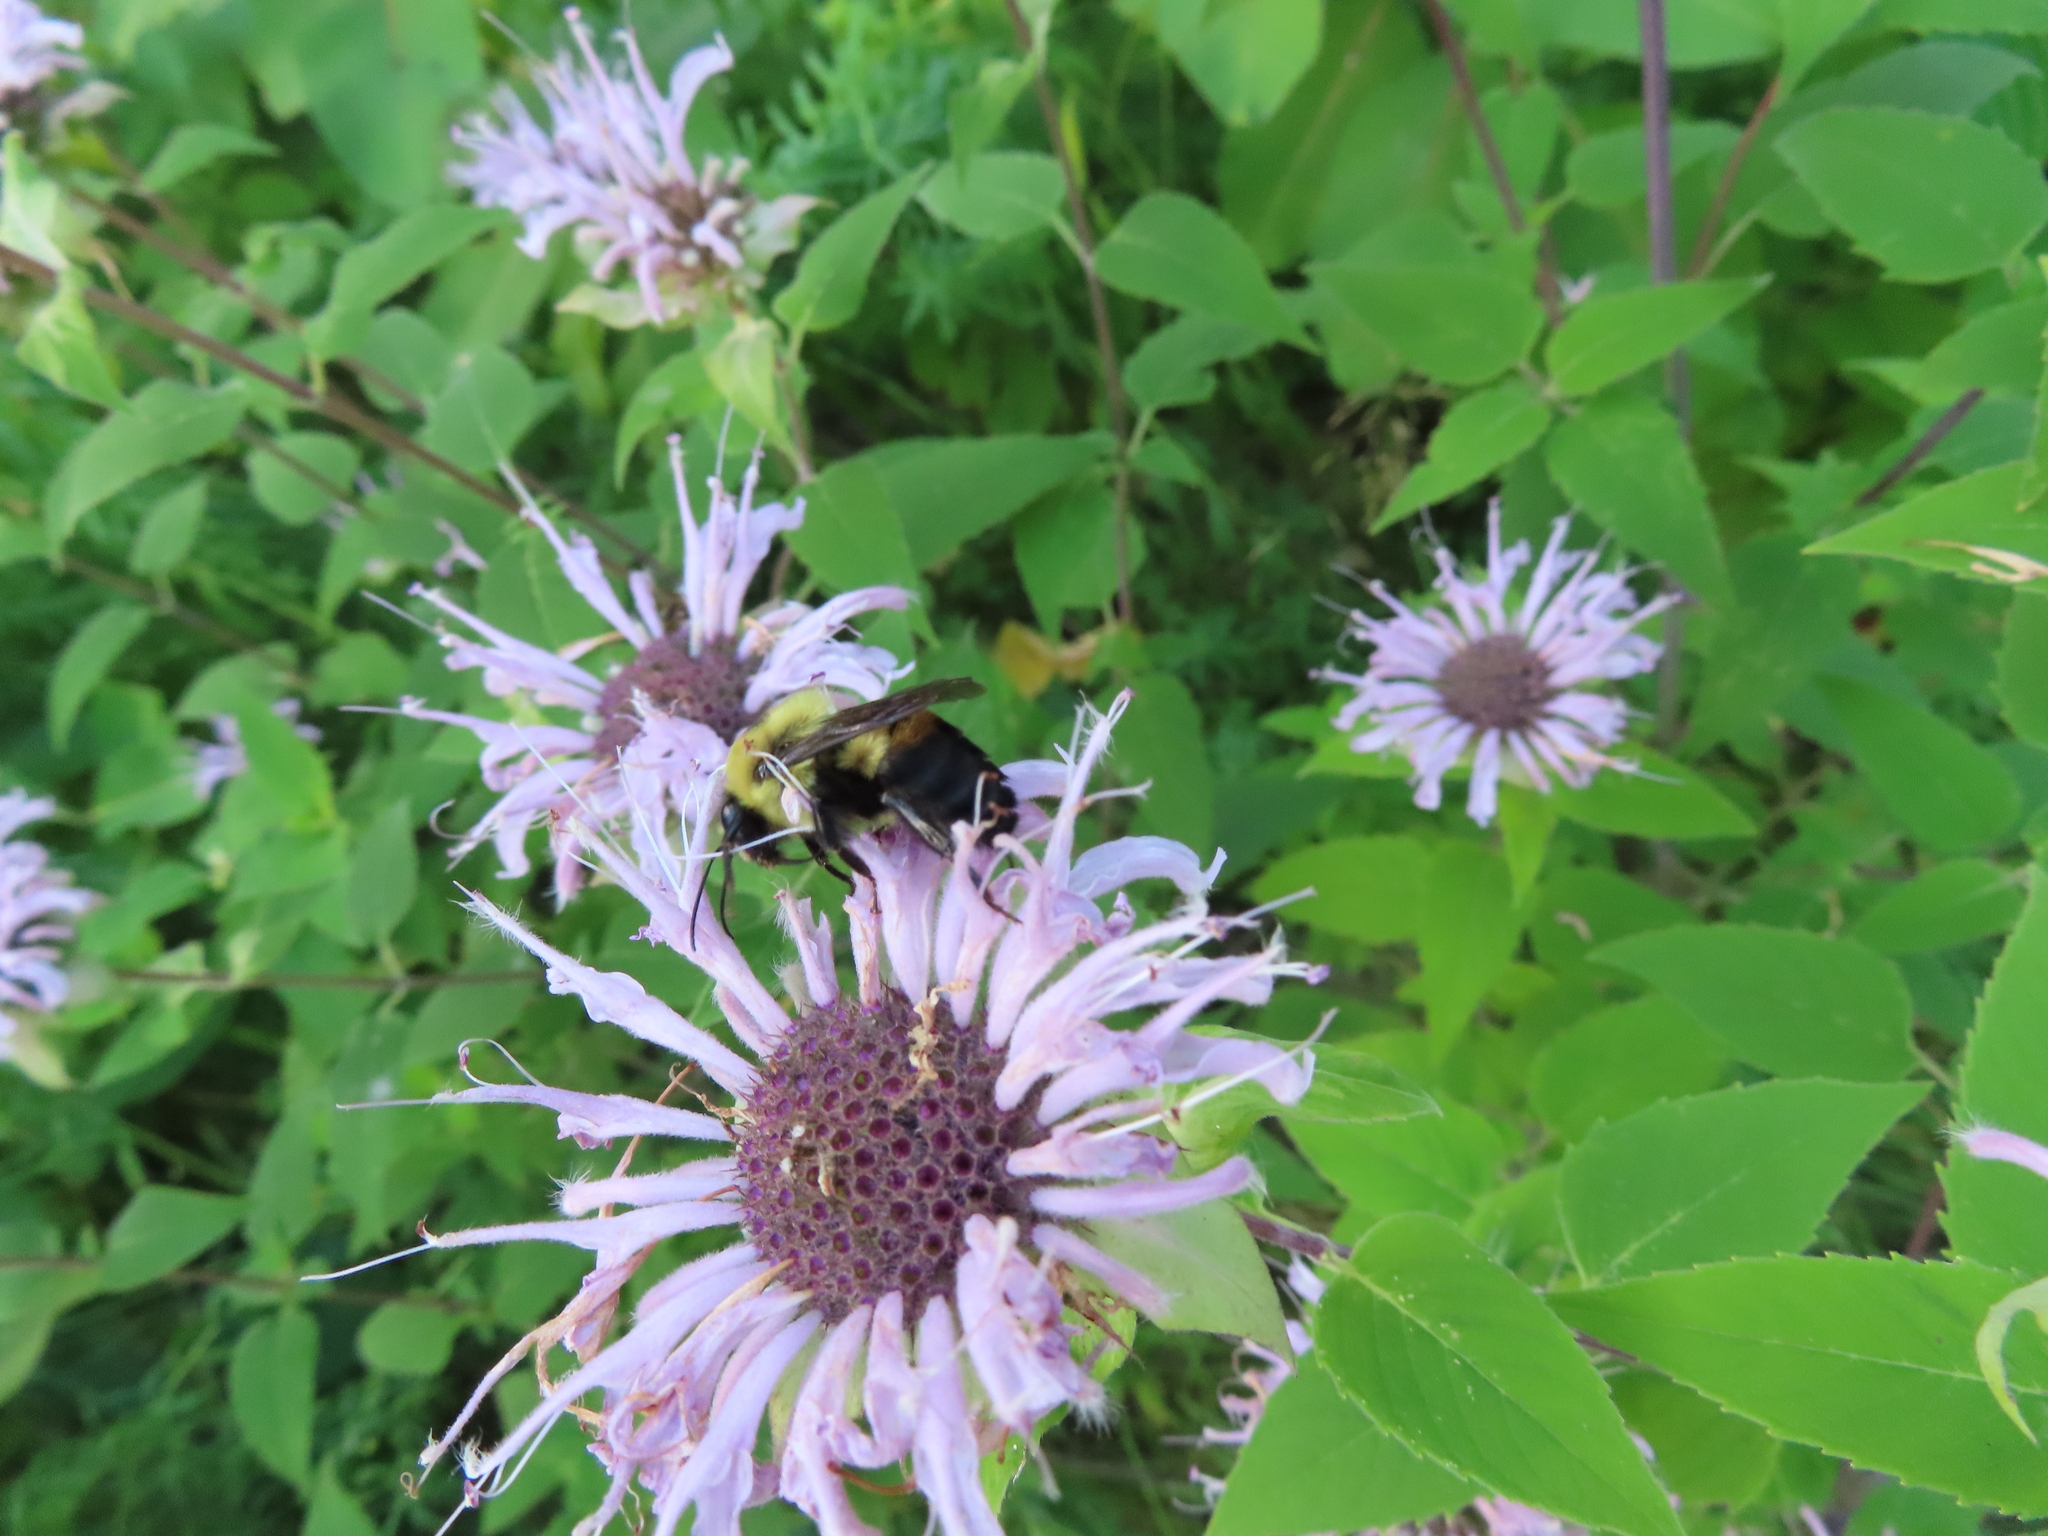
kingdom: Animalia
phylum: Arthropoda
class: Insecta
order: Hymenoptera
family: Apidae
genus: Bombus
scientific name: Bombus griseocollis
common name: Brown-belted bumble bee
